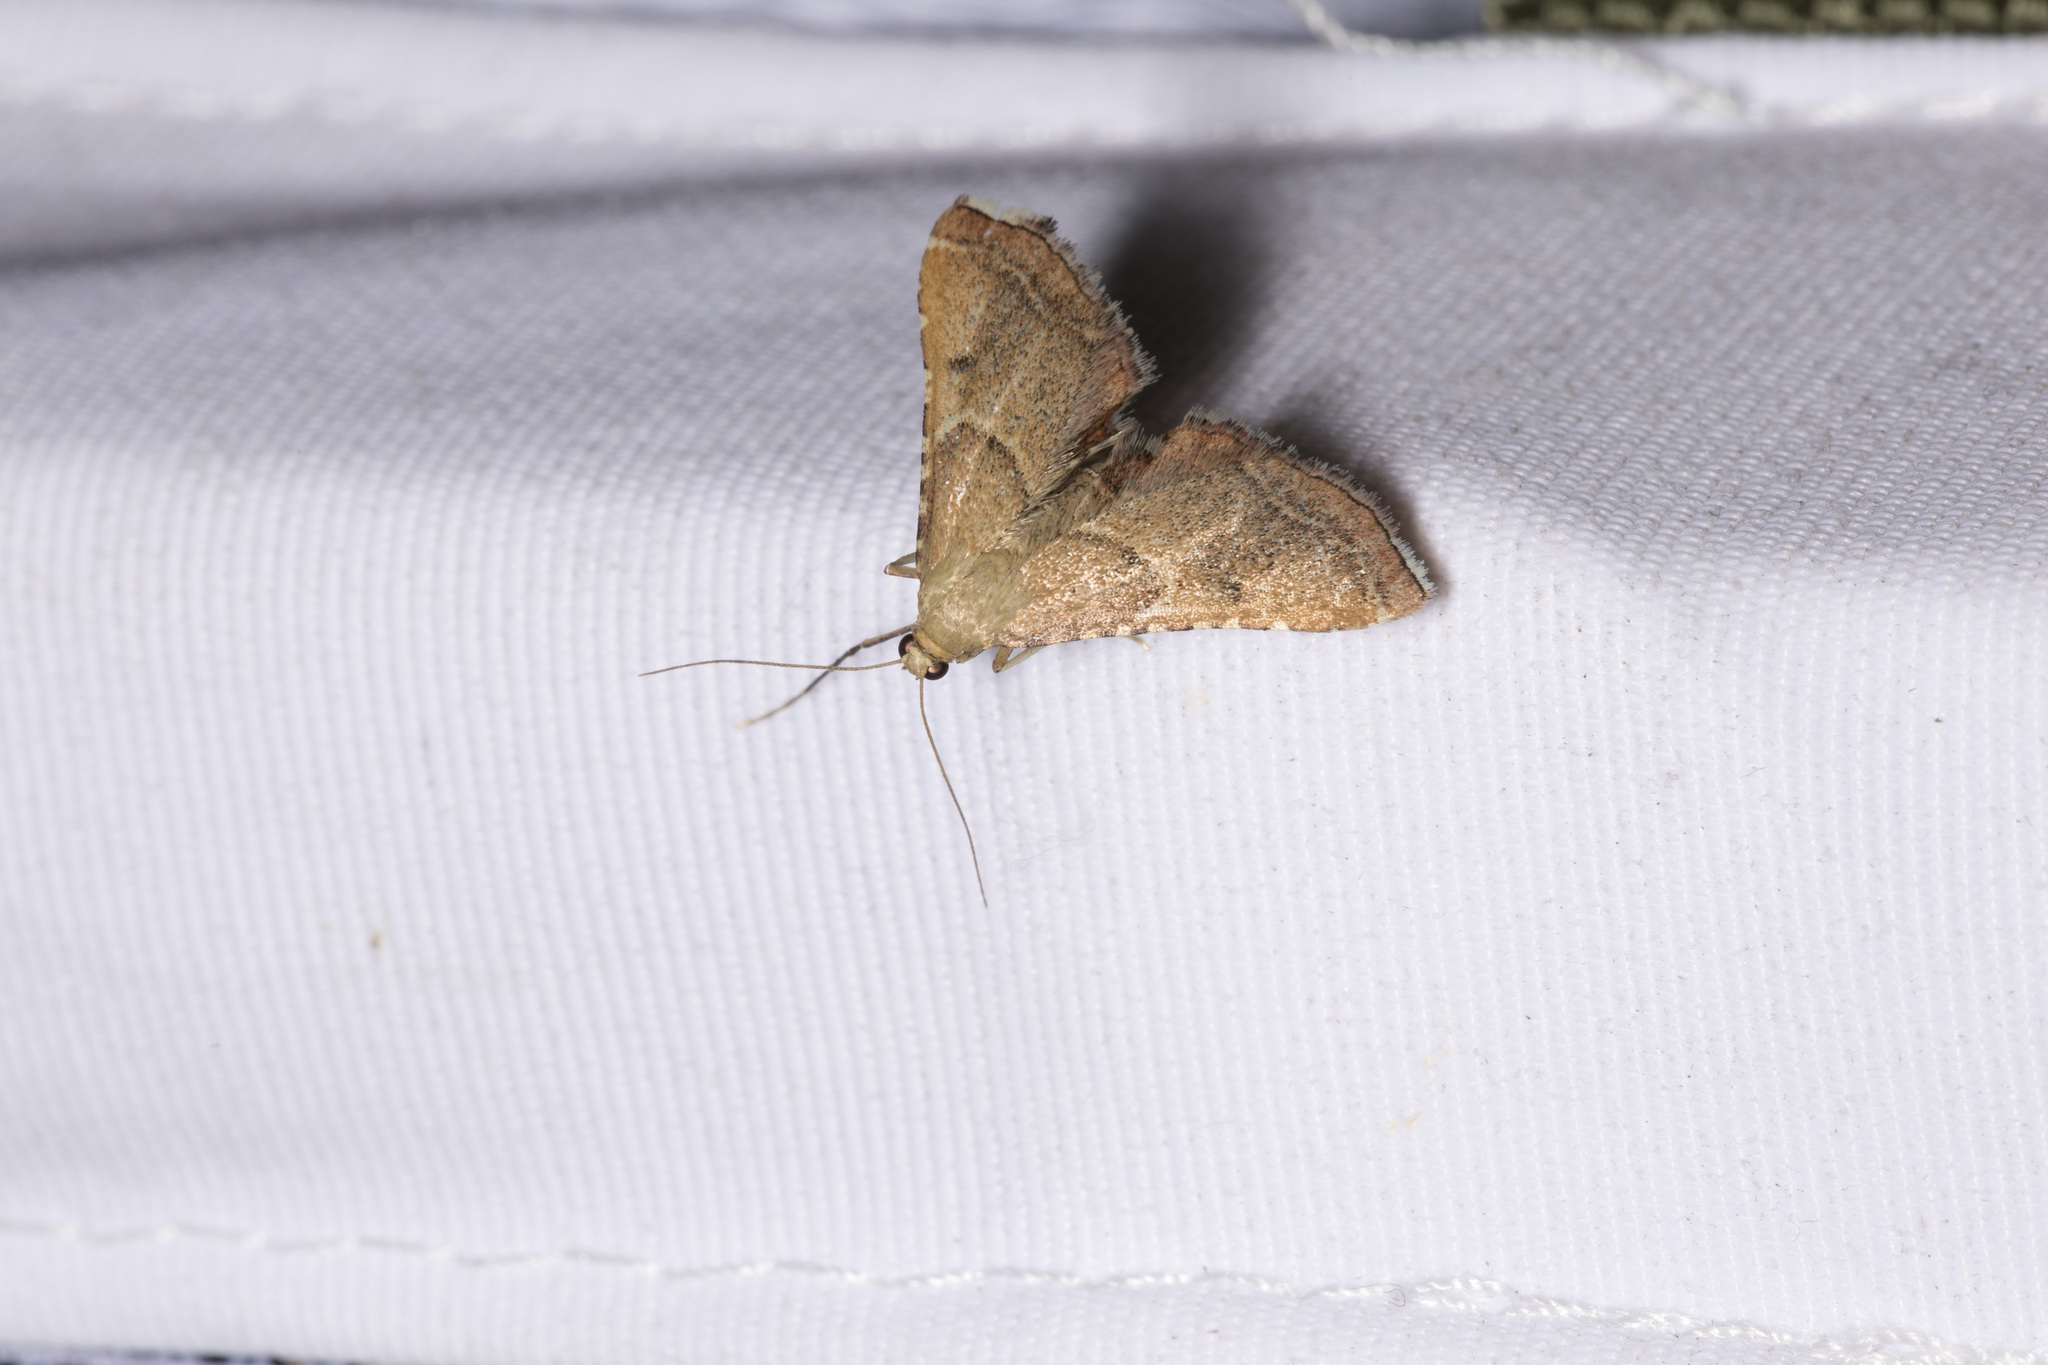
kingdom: Animalia
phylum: Arthropoda
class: Insecta
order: Lepidoptera
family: Pyralidae
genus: Endotricha
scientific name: Endotricha flammealis
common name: Rosy tabby
